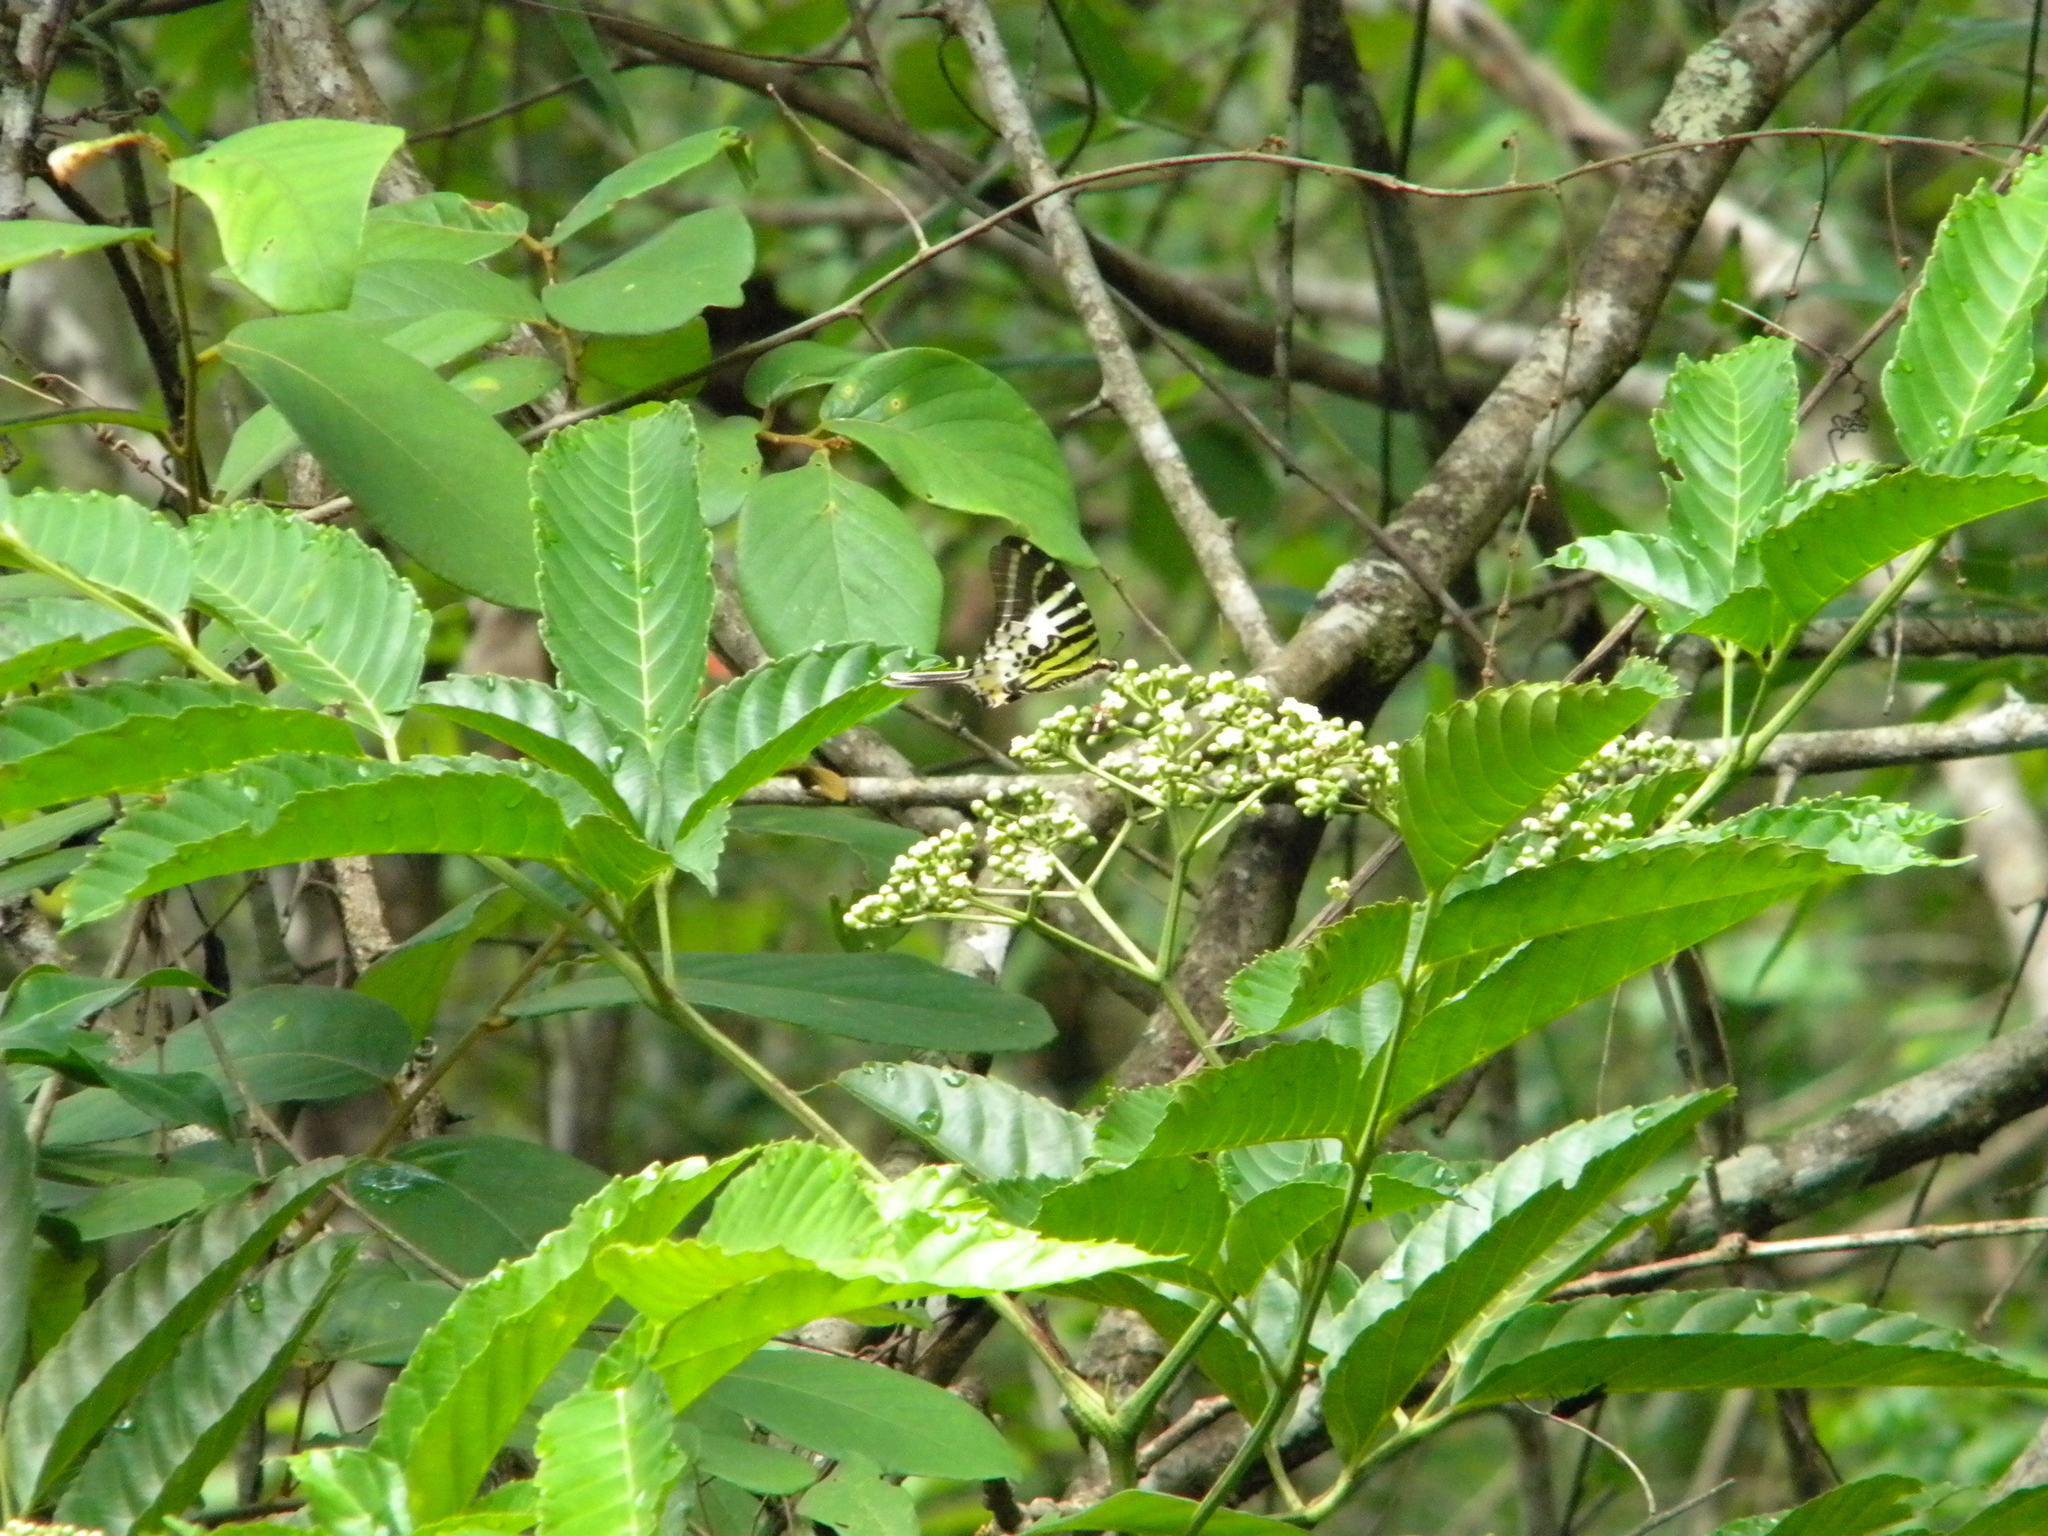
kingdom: Animalia
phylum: Arthropoda
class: Insecta
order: Lepidoptera
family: Papilionidae
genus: Graphium
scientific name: Graphium antiphates
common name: Fivebar swordtail
